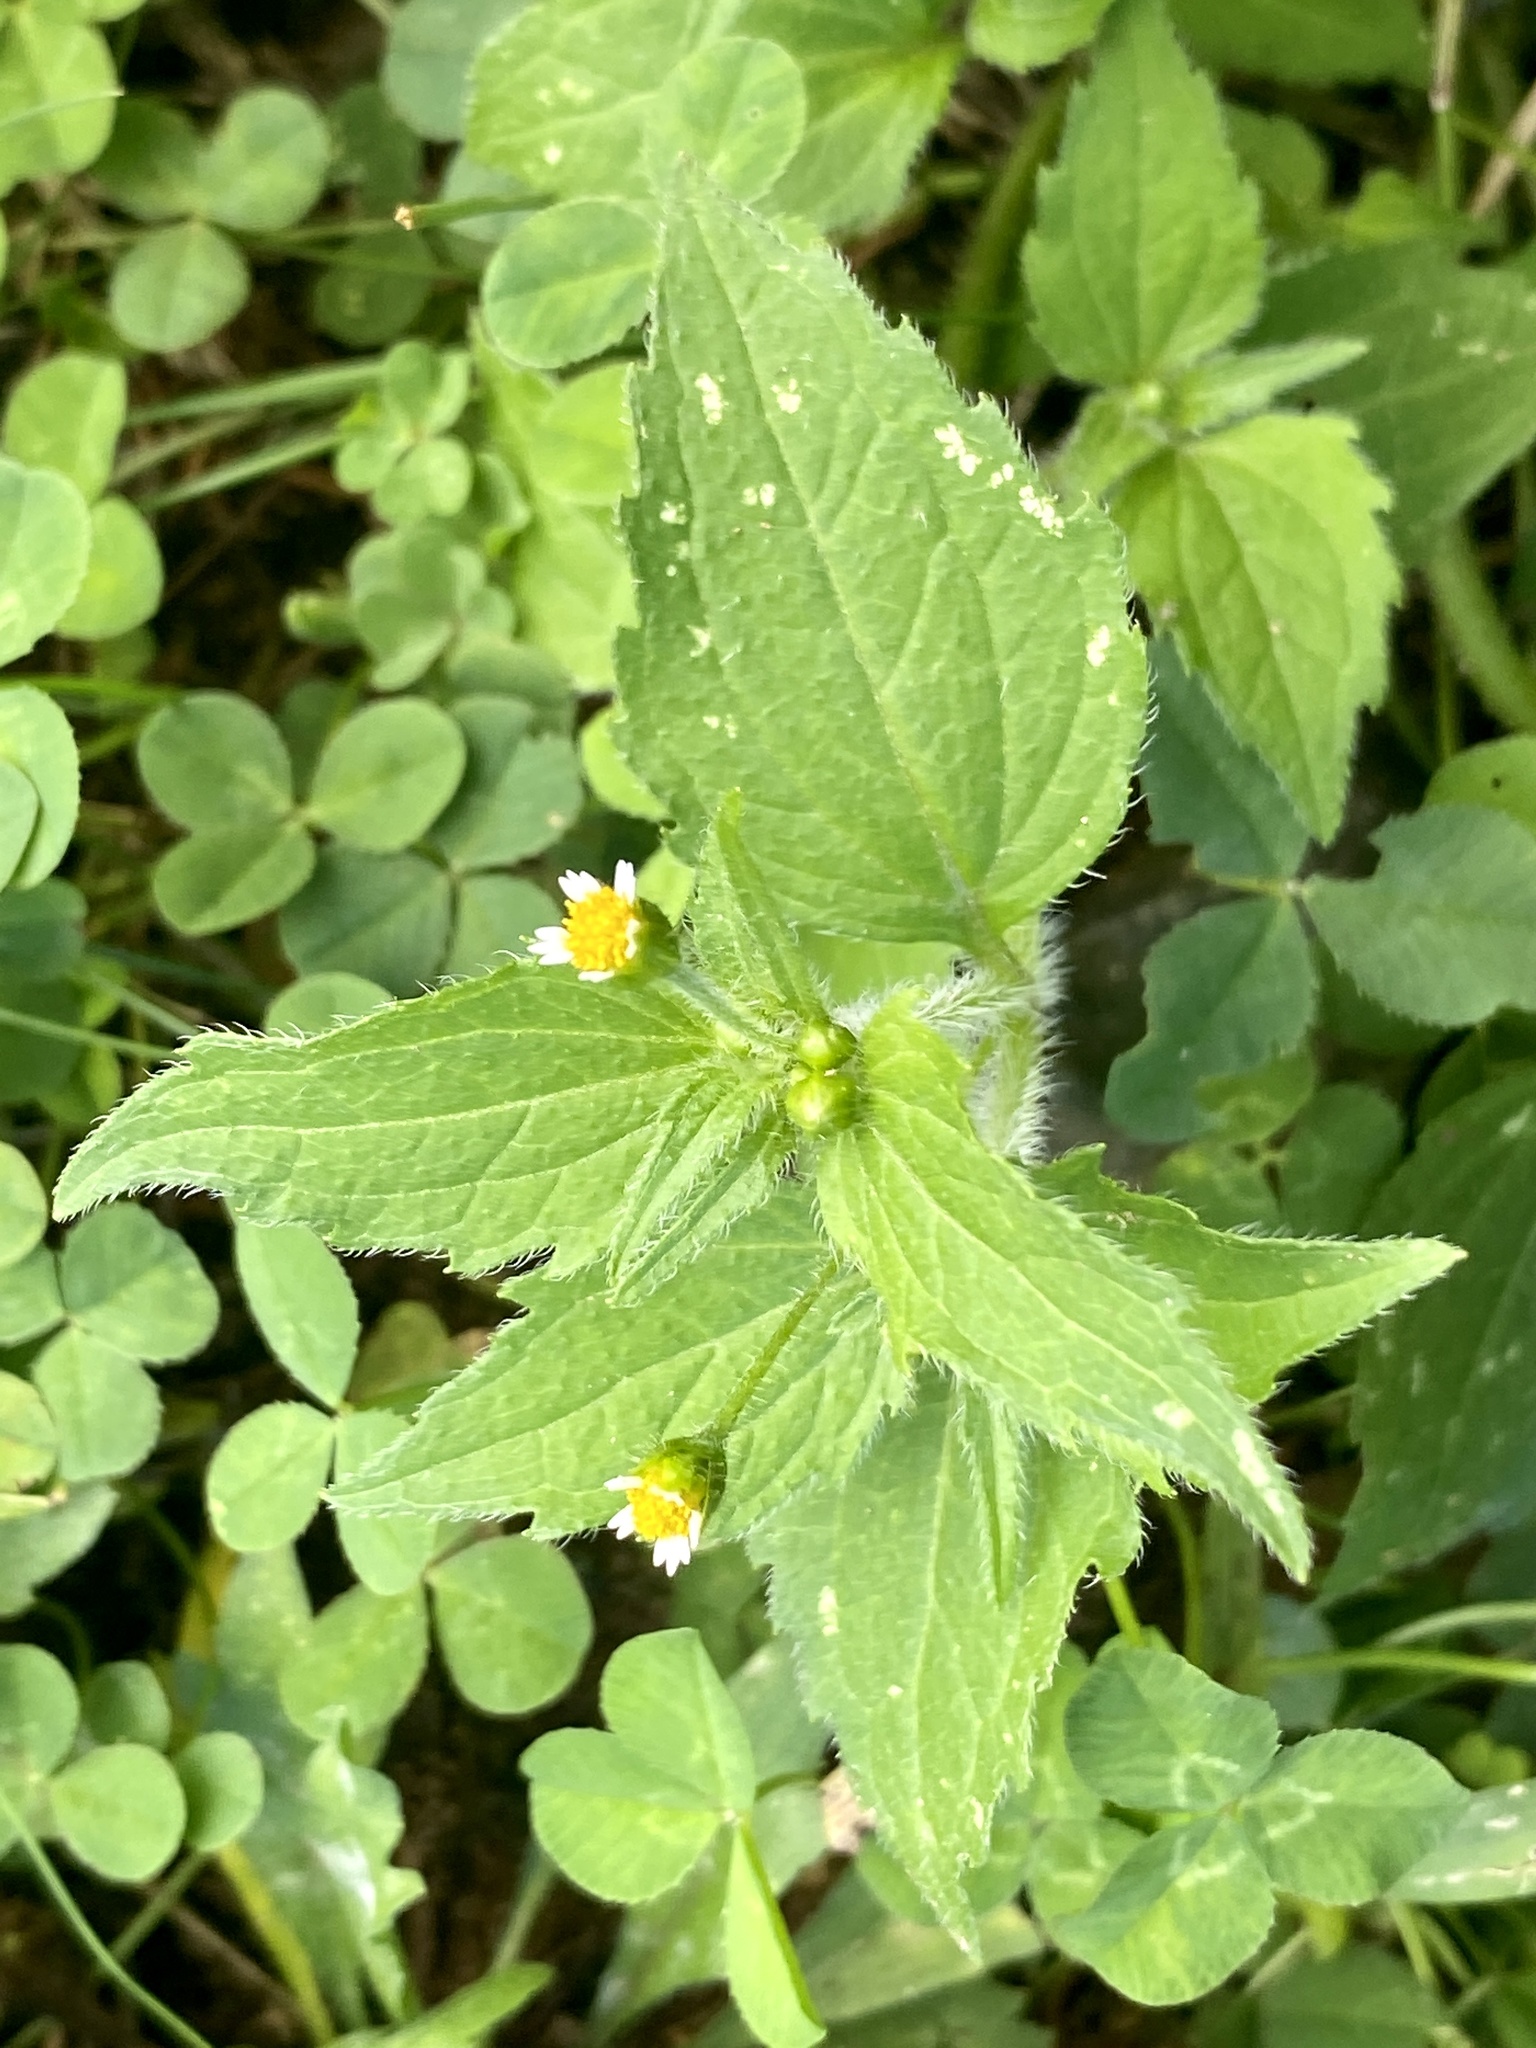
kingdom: Plantae
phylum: Tracheophyta
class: Magnoliopsida
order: Asterales
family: Asteraceae
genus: Galinsoga
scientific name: Galinsoga quadriradiata
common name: Shaggy soldier
